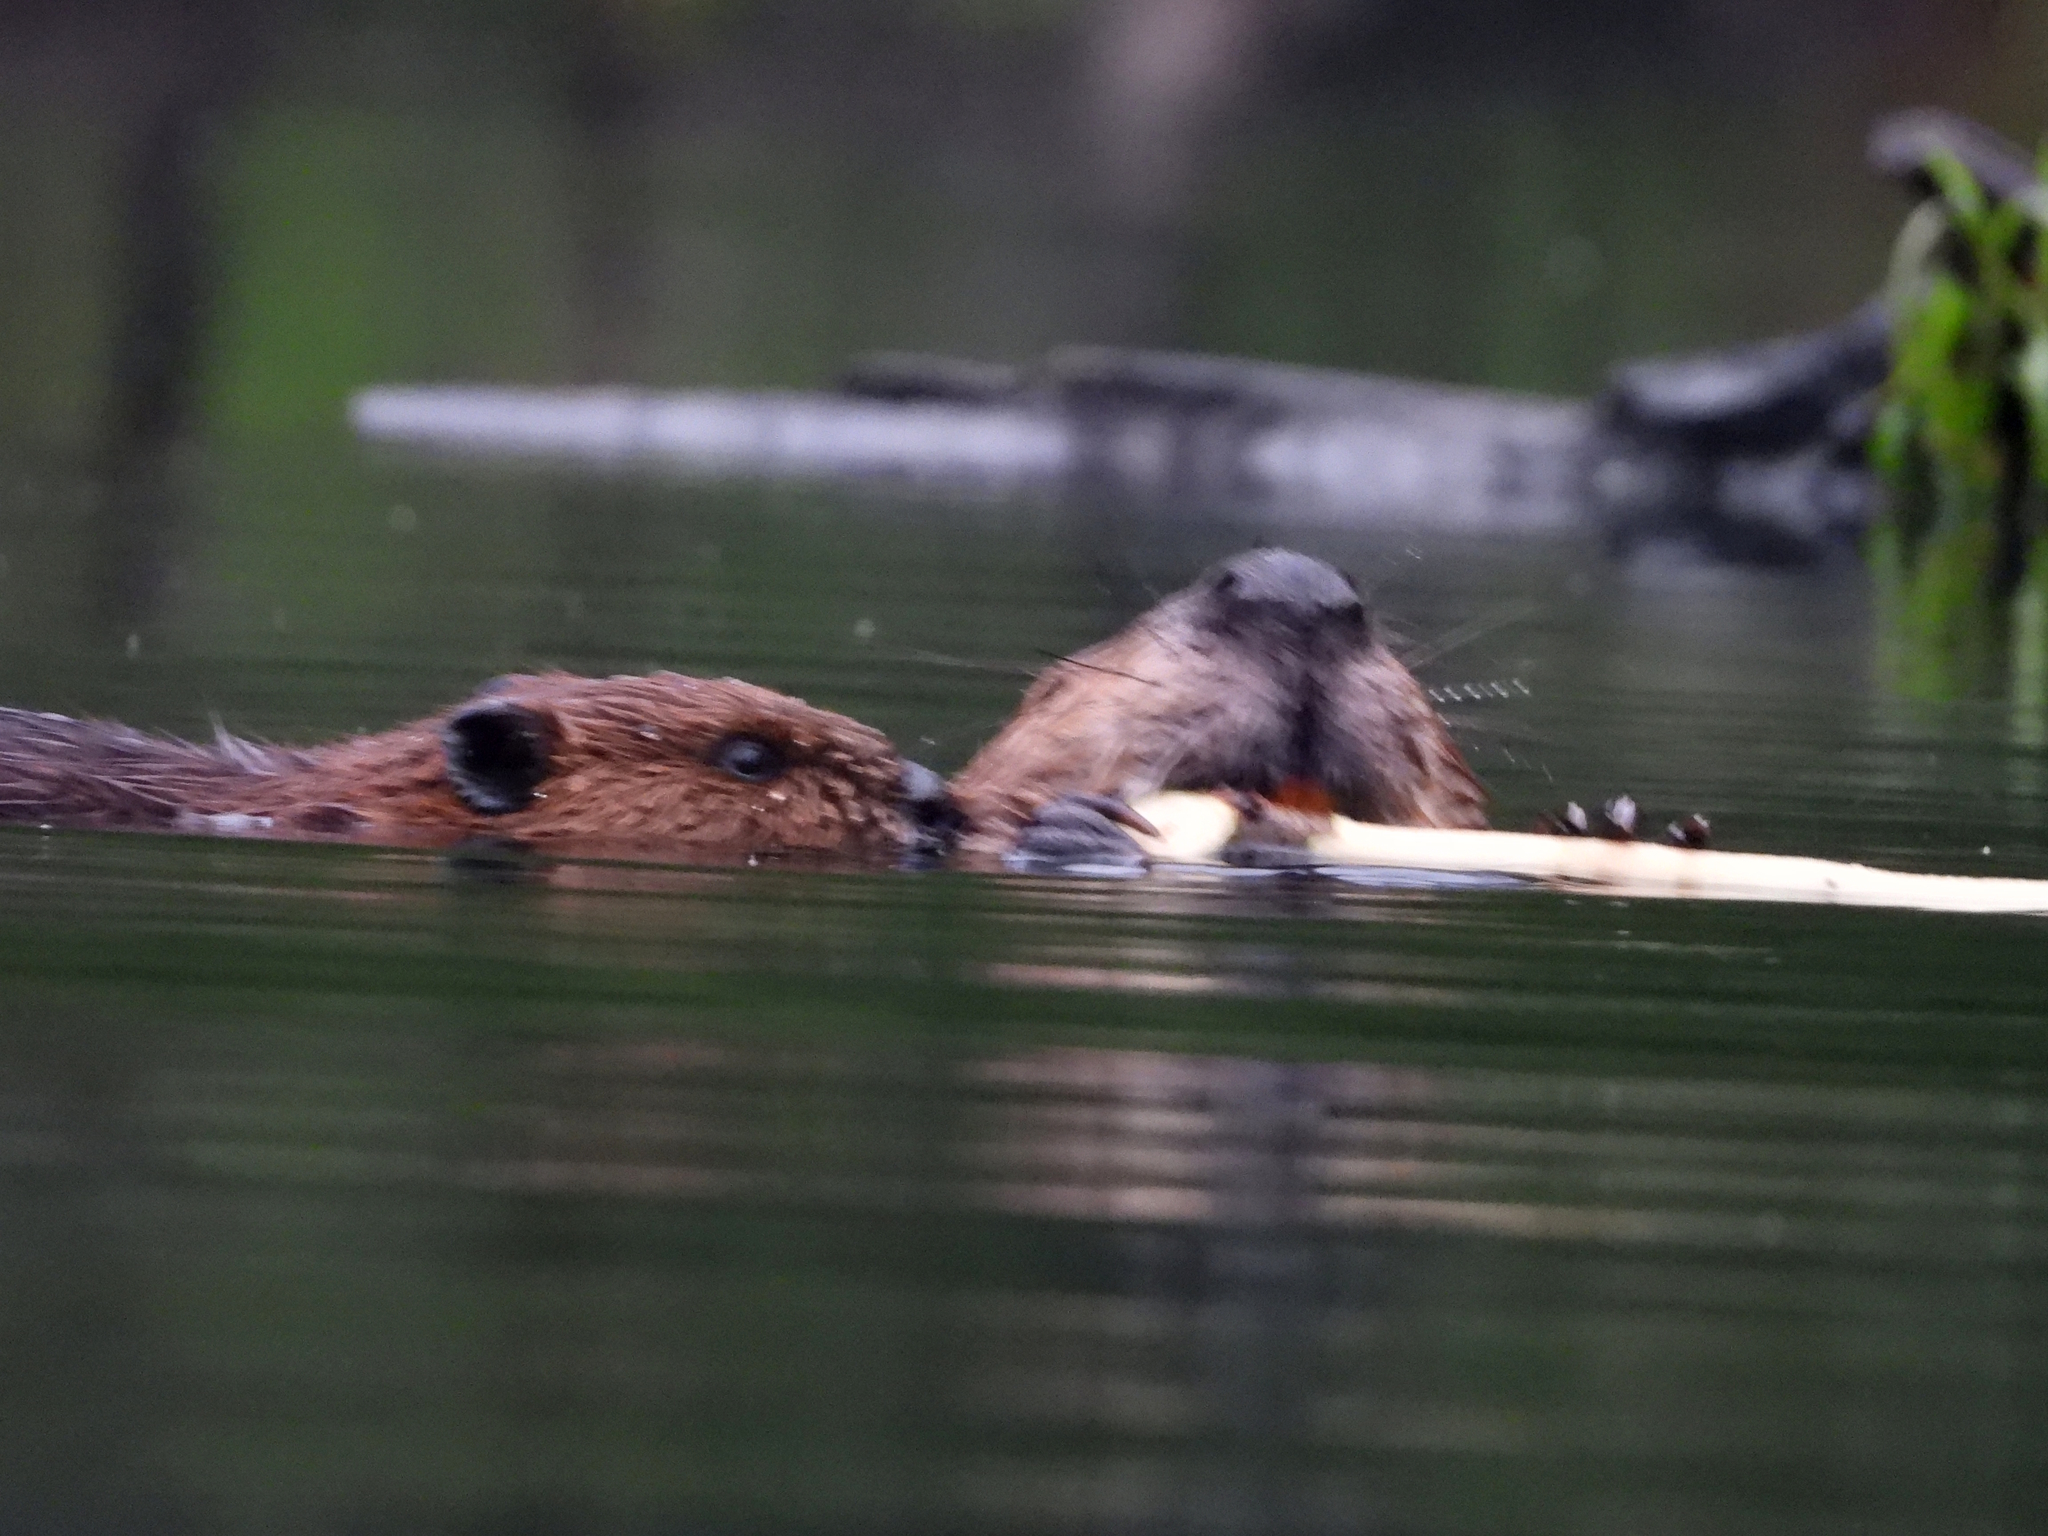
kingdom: Animalia
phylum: Chordata
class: Mammalia
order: Rodentia
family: Castoridae
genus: Castor
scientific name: Castor canadensis
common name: American beaver
